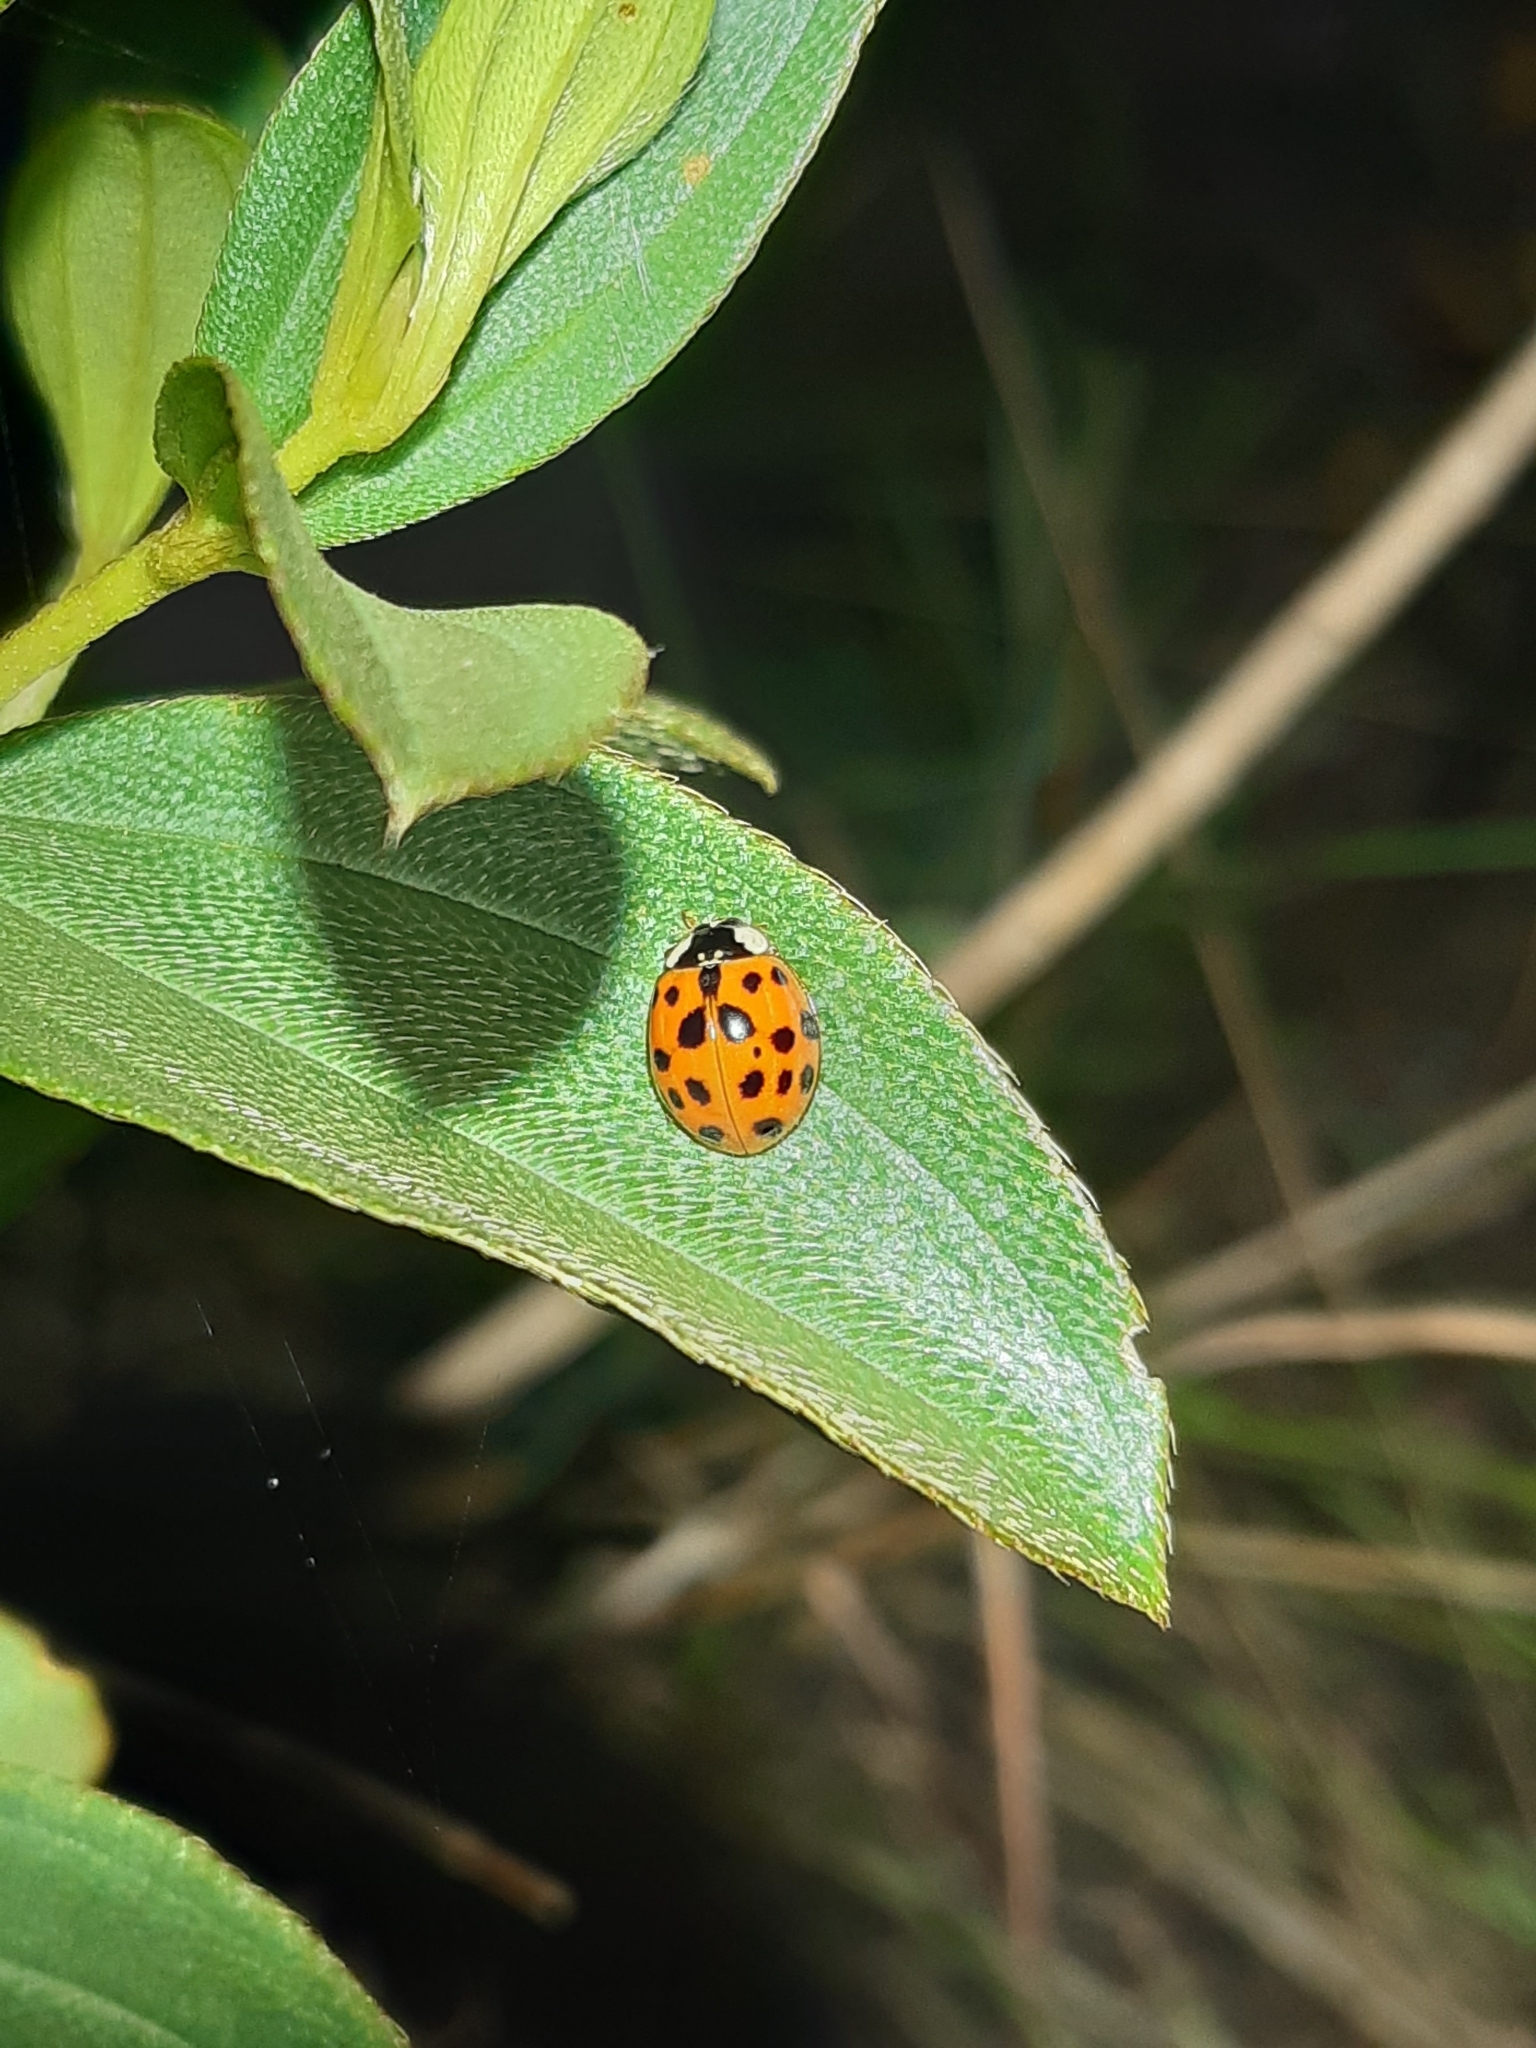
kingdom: Animalia
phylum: Arthropoda
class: Insecta
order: Coleoptera
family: Coccinellidae
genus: Harmonia
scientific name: Harmonia axyridis
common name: Harlequin ladybird
